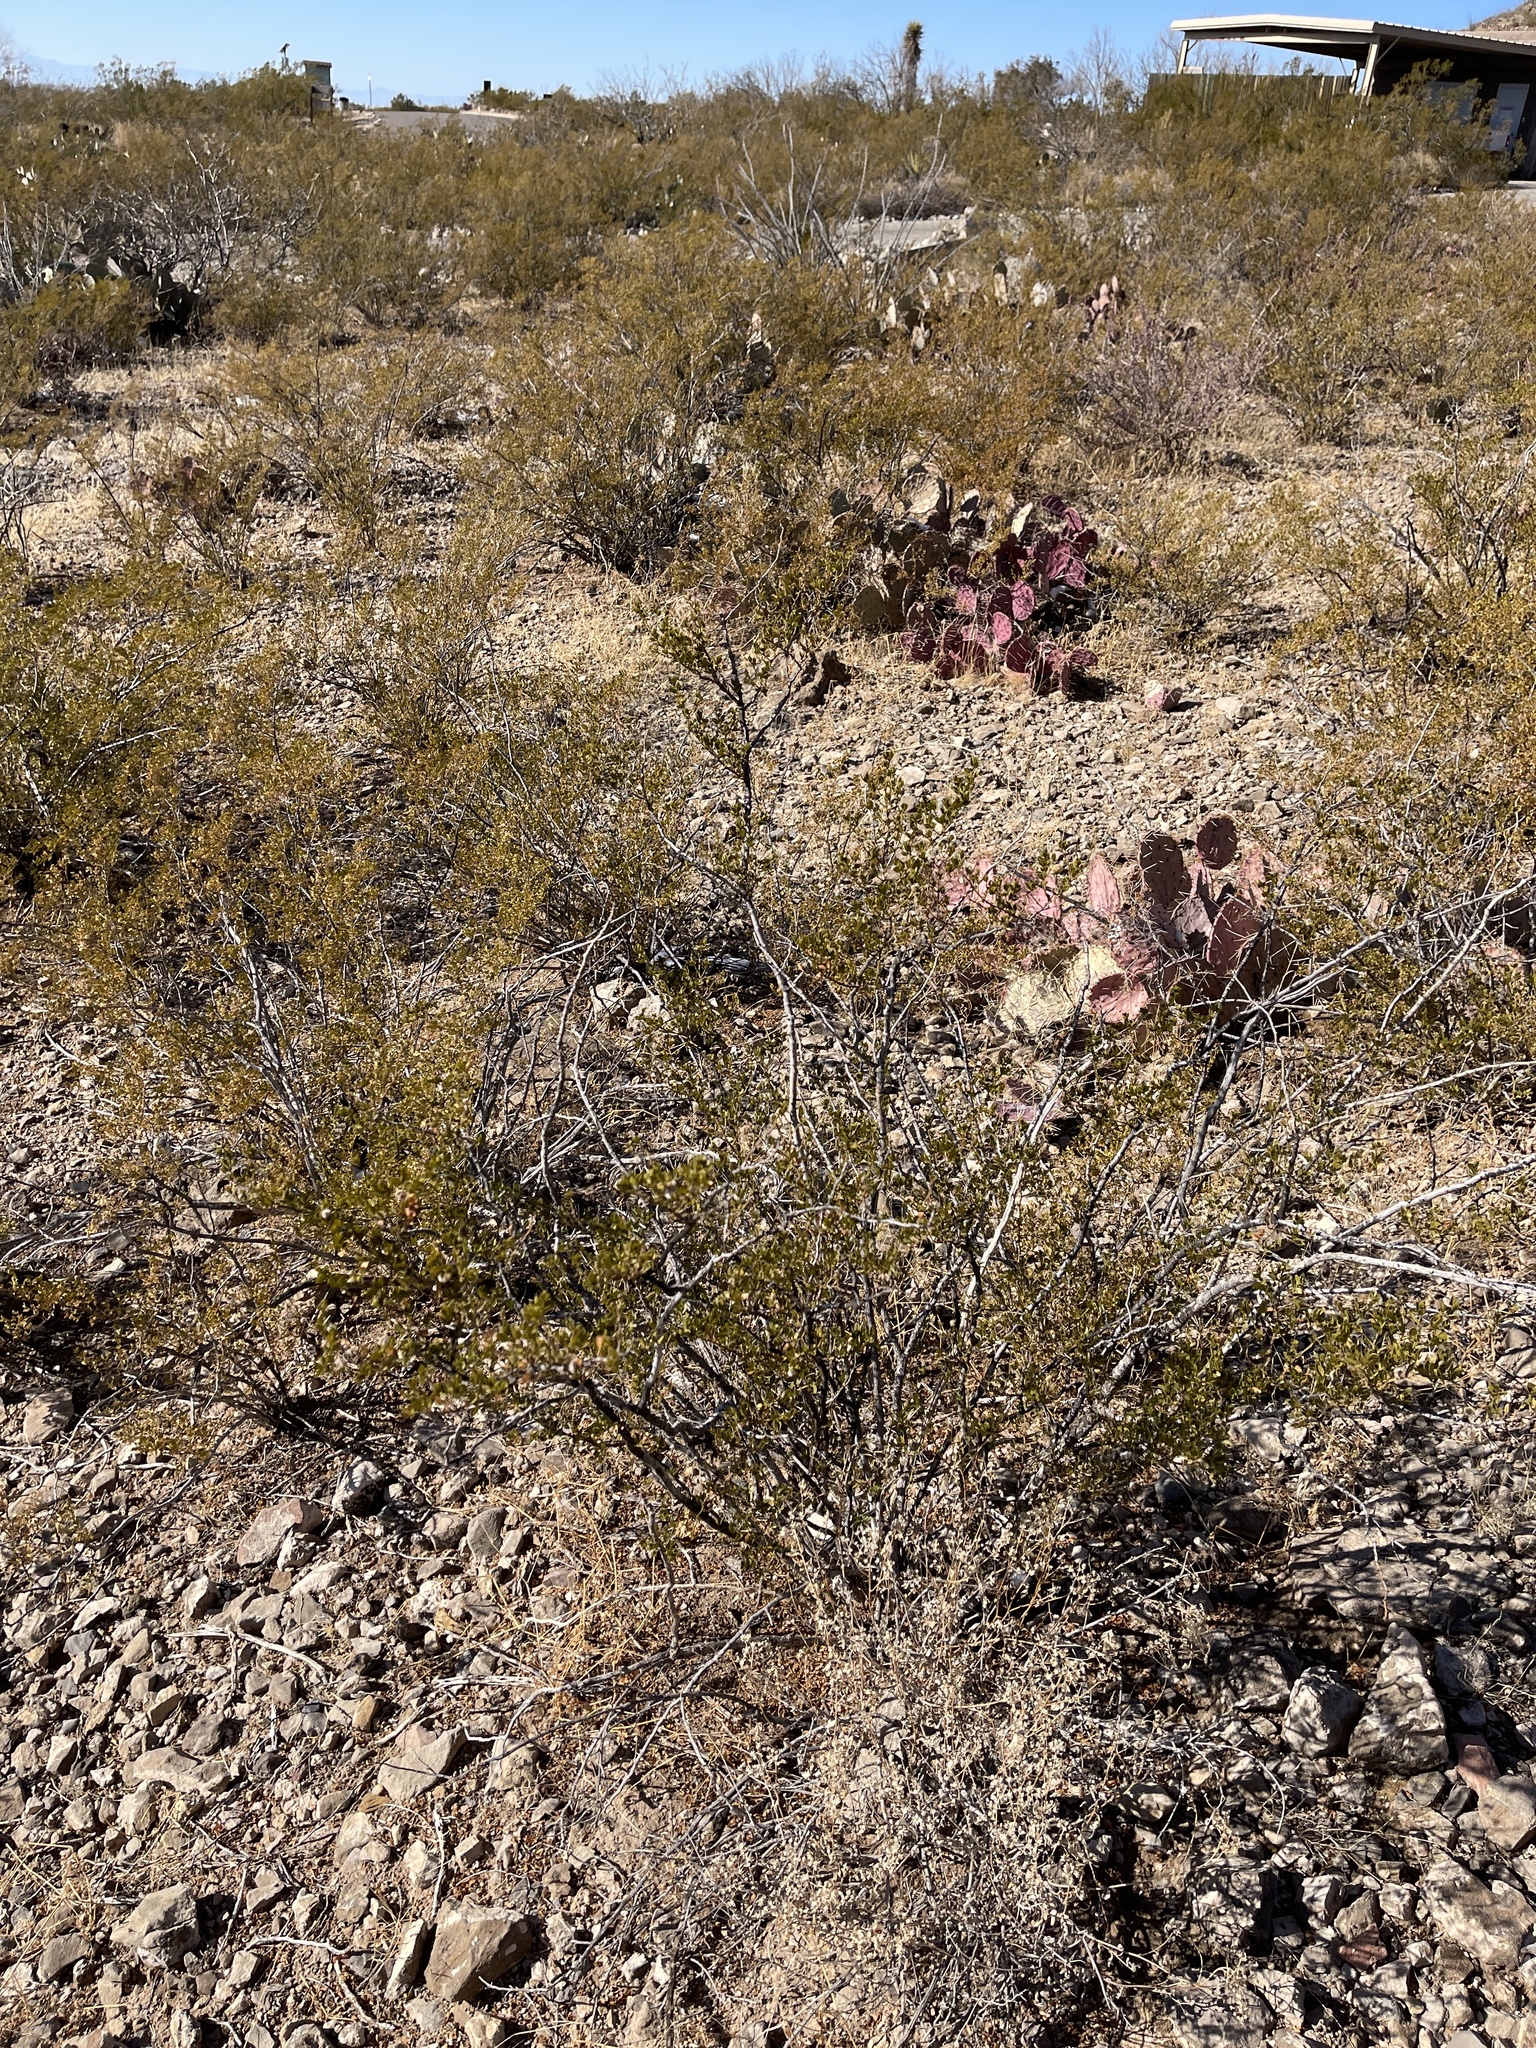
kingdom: Plantae
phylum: Tracheophyta
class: Magnoliopsida
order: Zygophyllales
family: Zygophyllaceae
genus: Larrea
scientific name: Larrea tridentata
